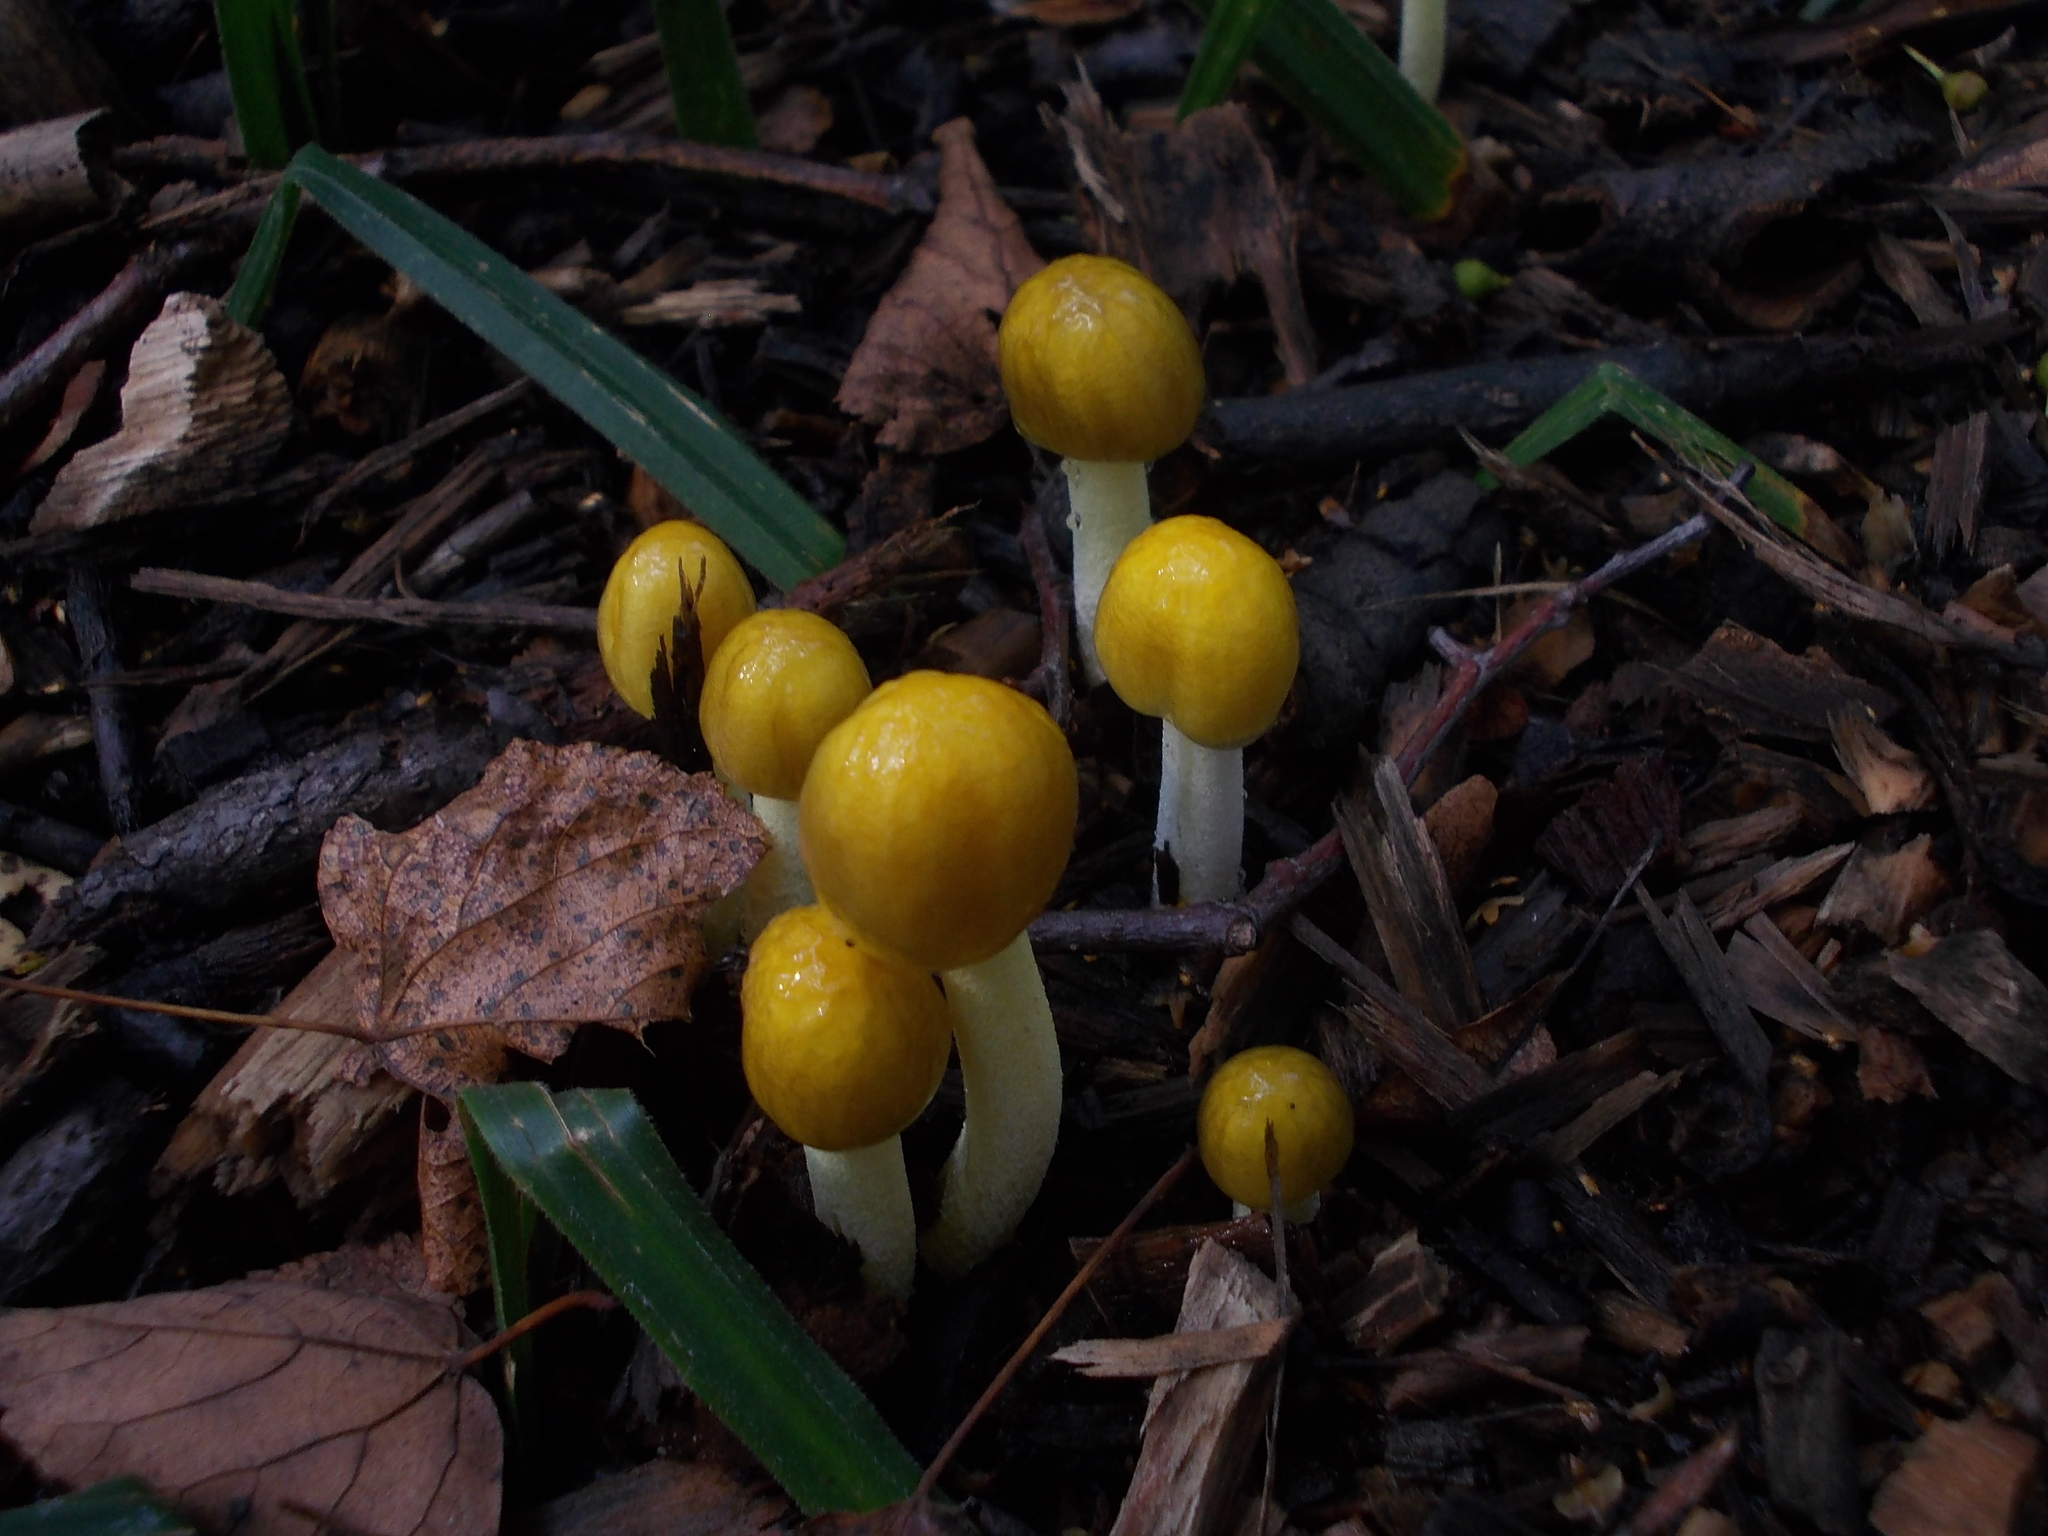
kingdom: Fungi
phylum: Basidiomycota
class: Agaricomycetes
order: Agaricales
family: Bolbitiaceae
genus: Bolbitius
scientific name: Bolbitius titubans
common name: Yellow fieldcap
